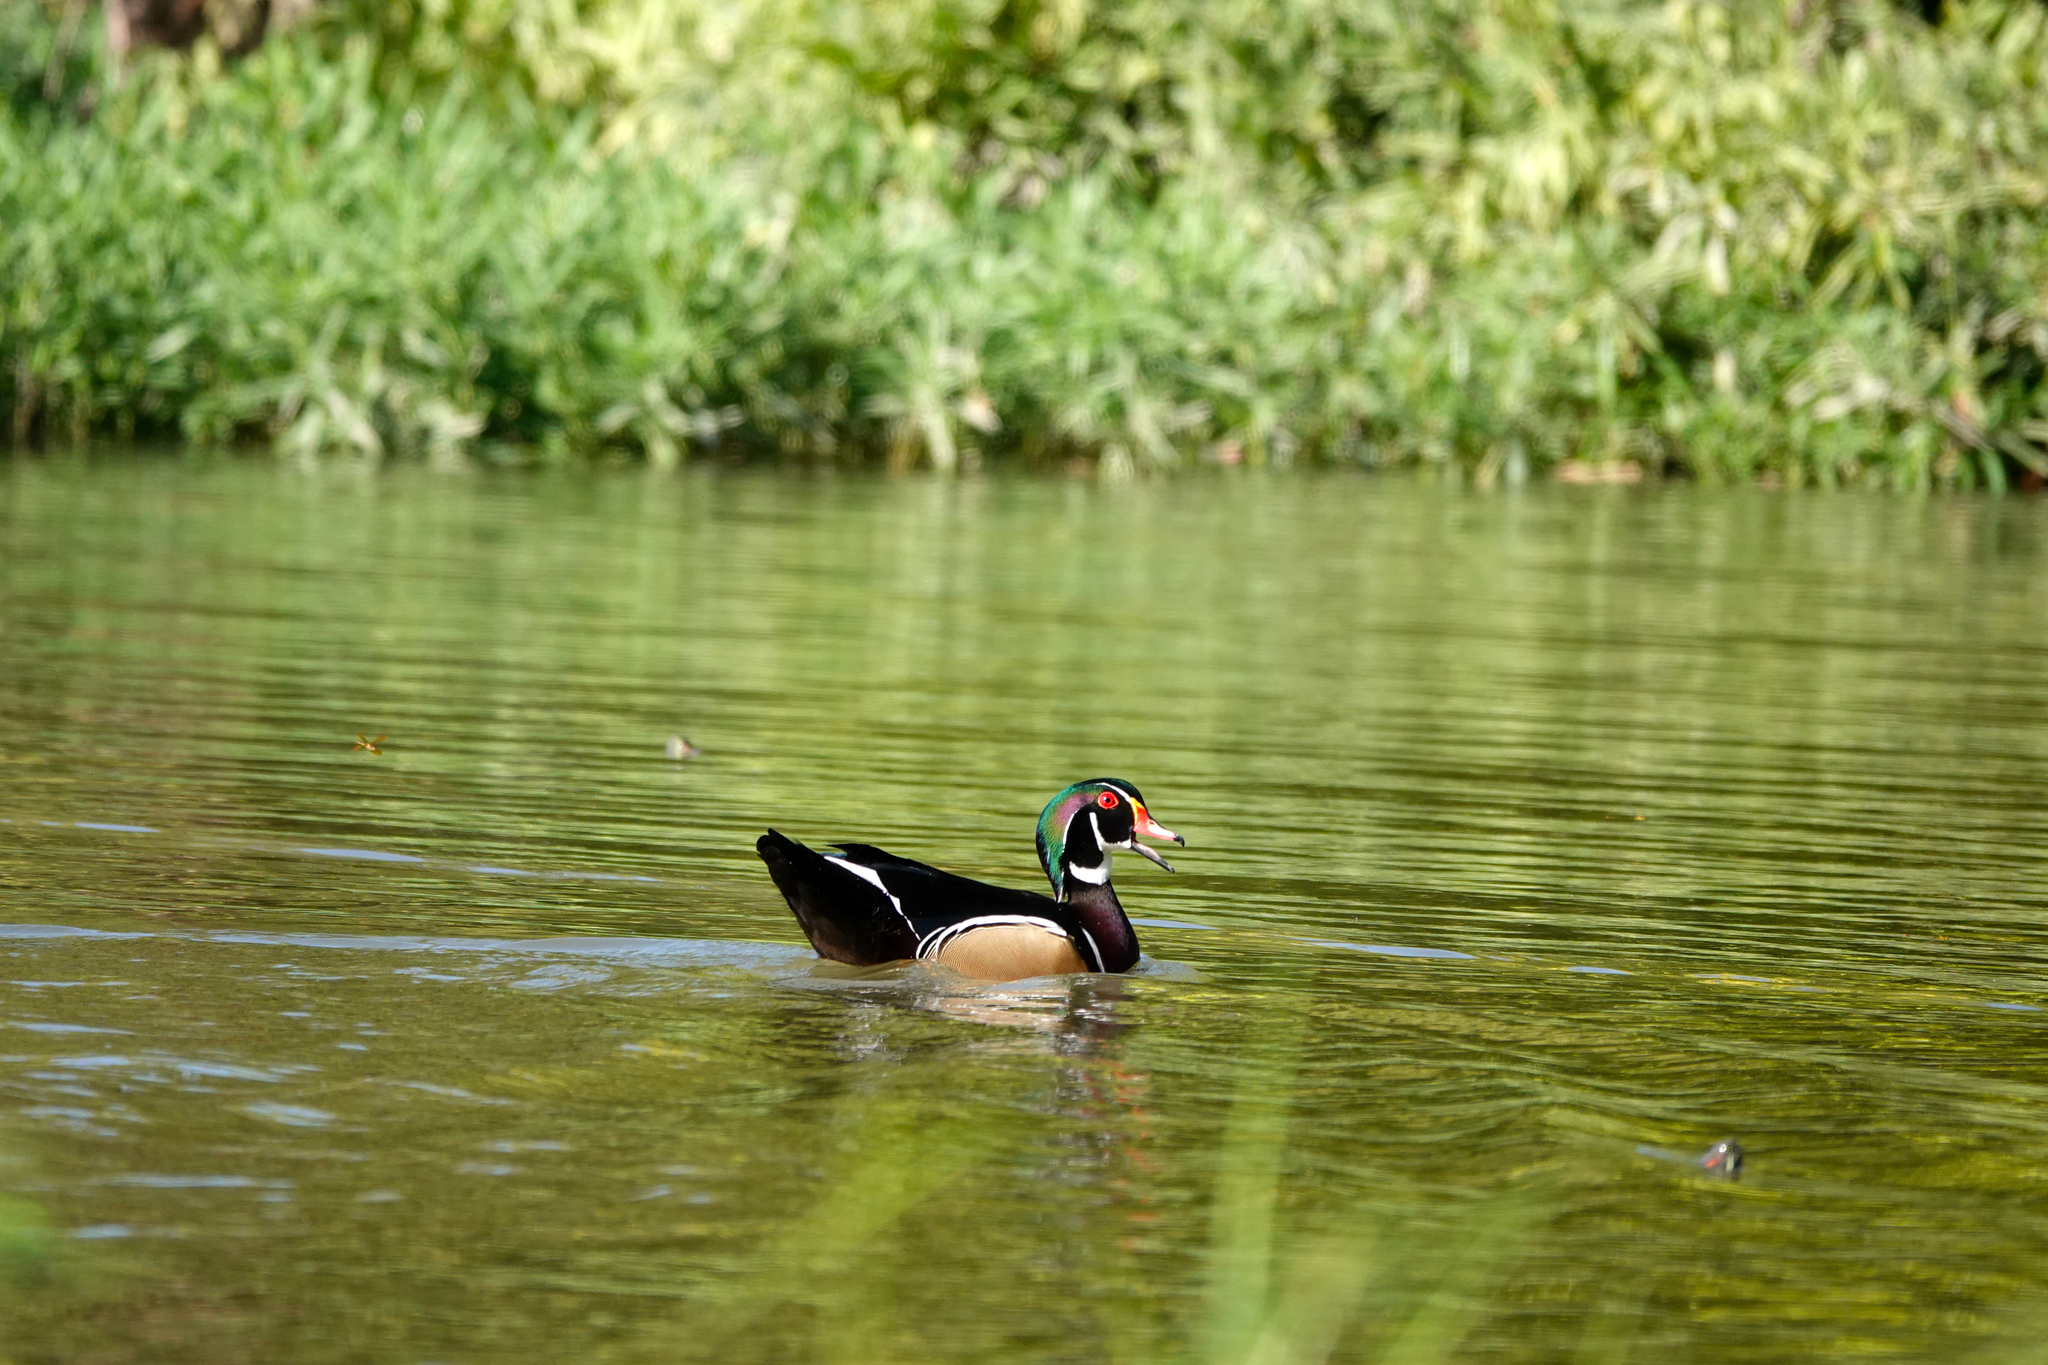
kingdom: Animalia
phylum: Chordata
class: Aves
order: Anseriformes
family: Anatidae
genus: Aix
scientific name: Aix sponsa
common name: Wood duck
